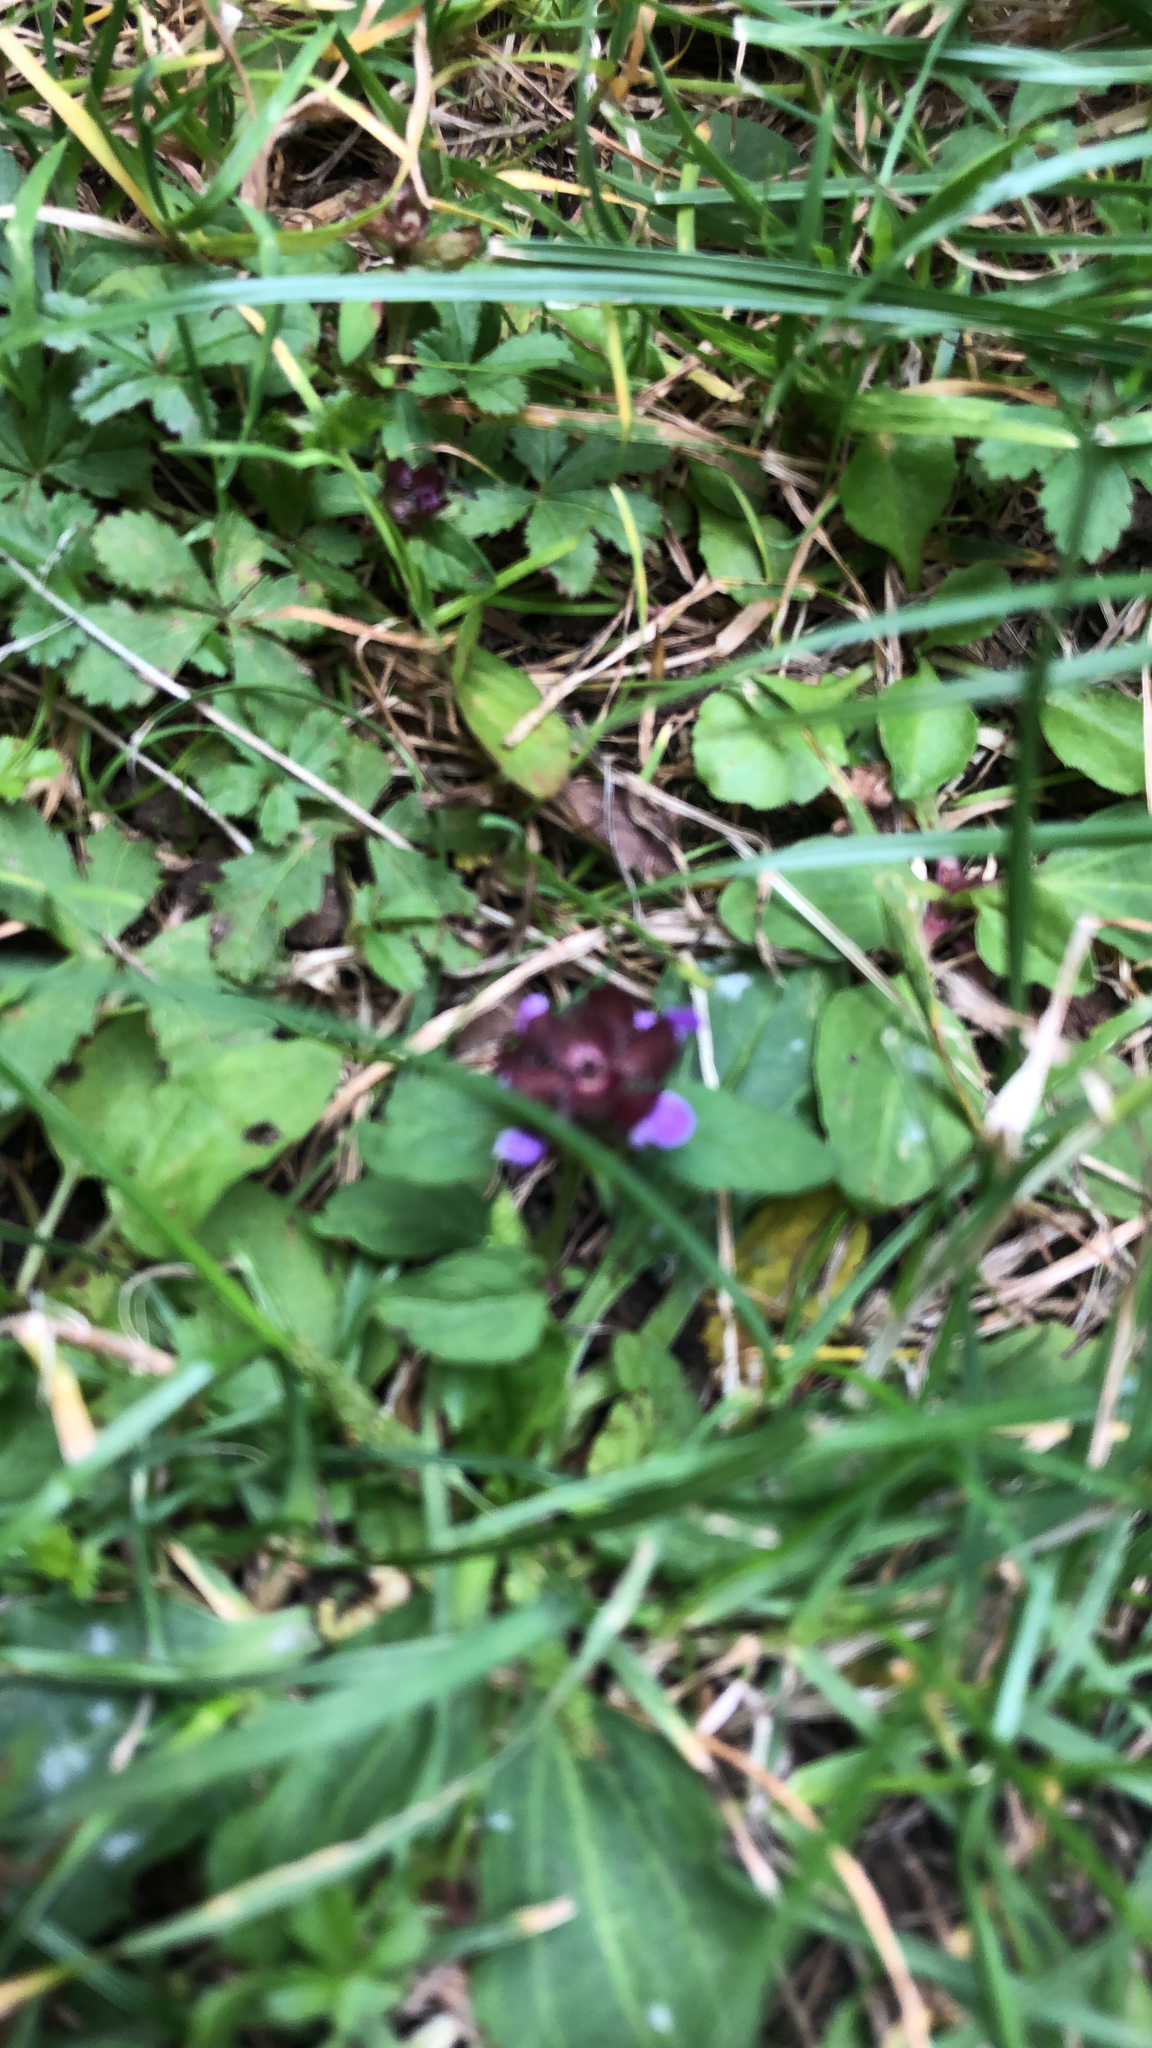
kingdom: Plantae
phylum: Tracheophyta
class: Magnoliopsida
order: Lamiales
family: Lamiaceae
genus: Prunella
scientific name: Prunella vulgaris
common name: Heal-all
